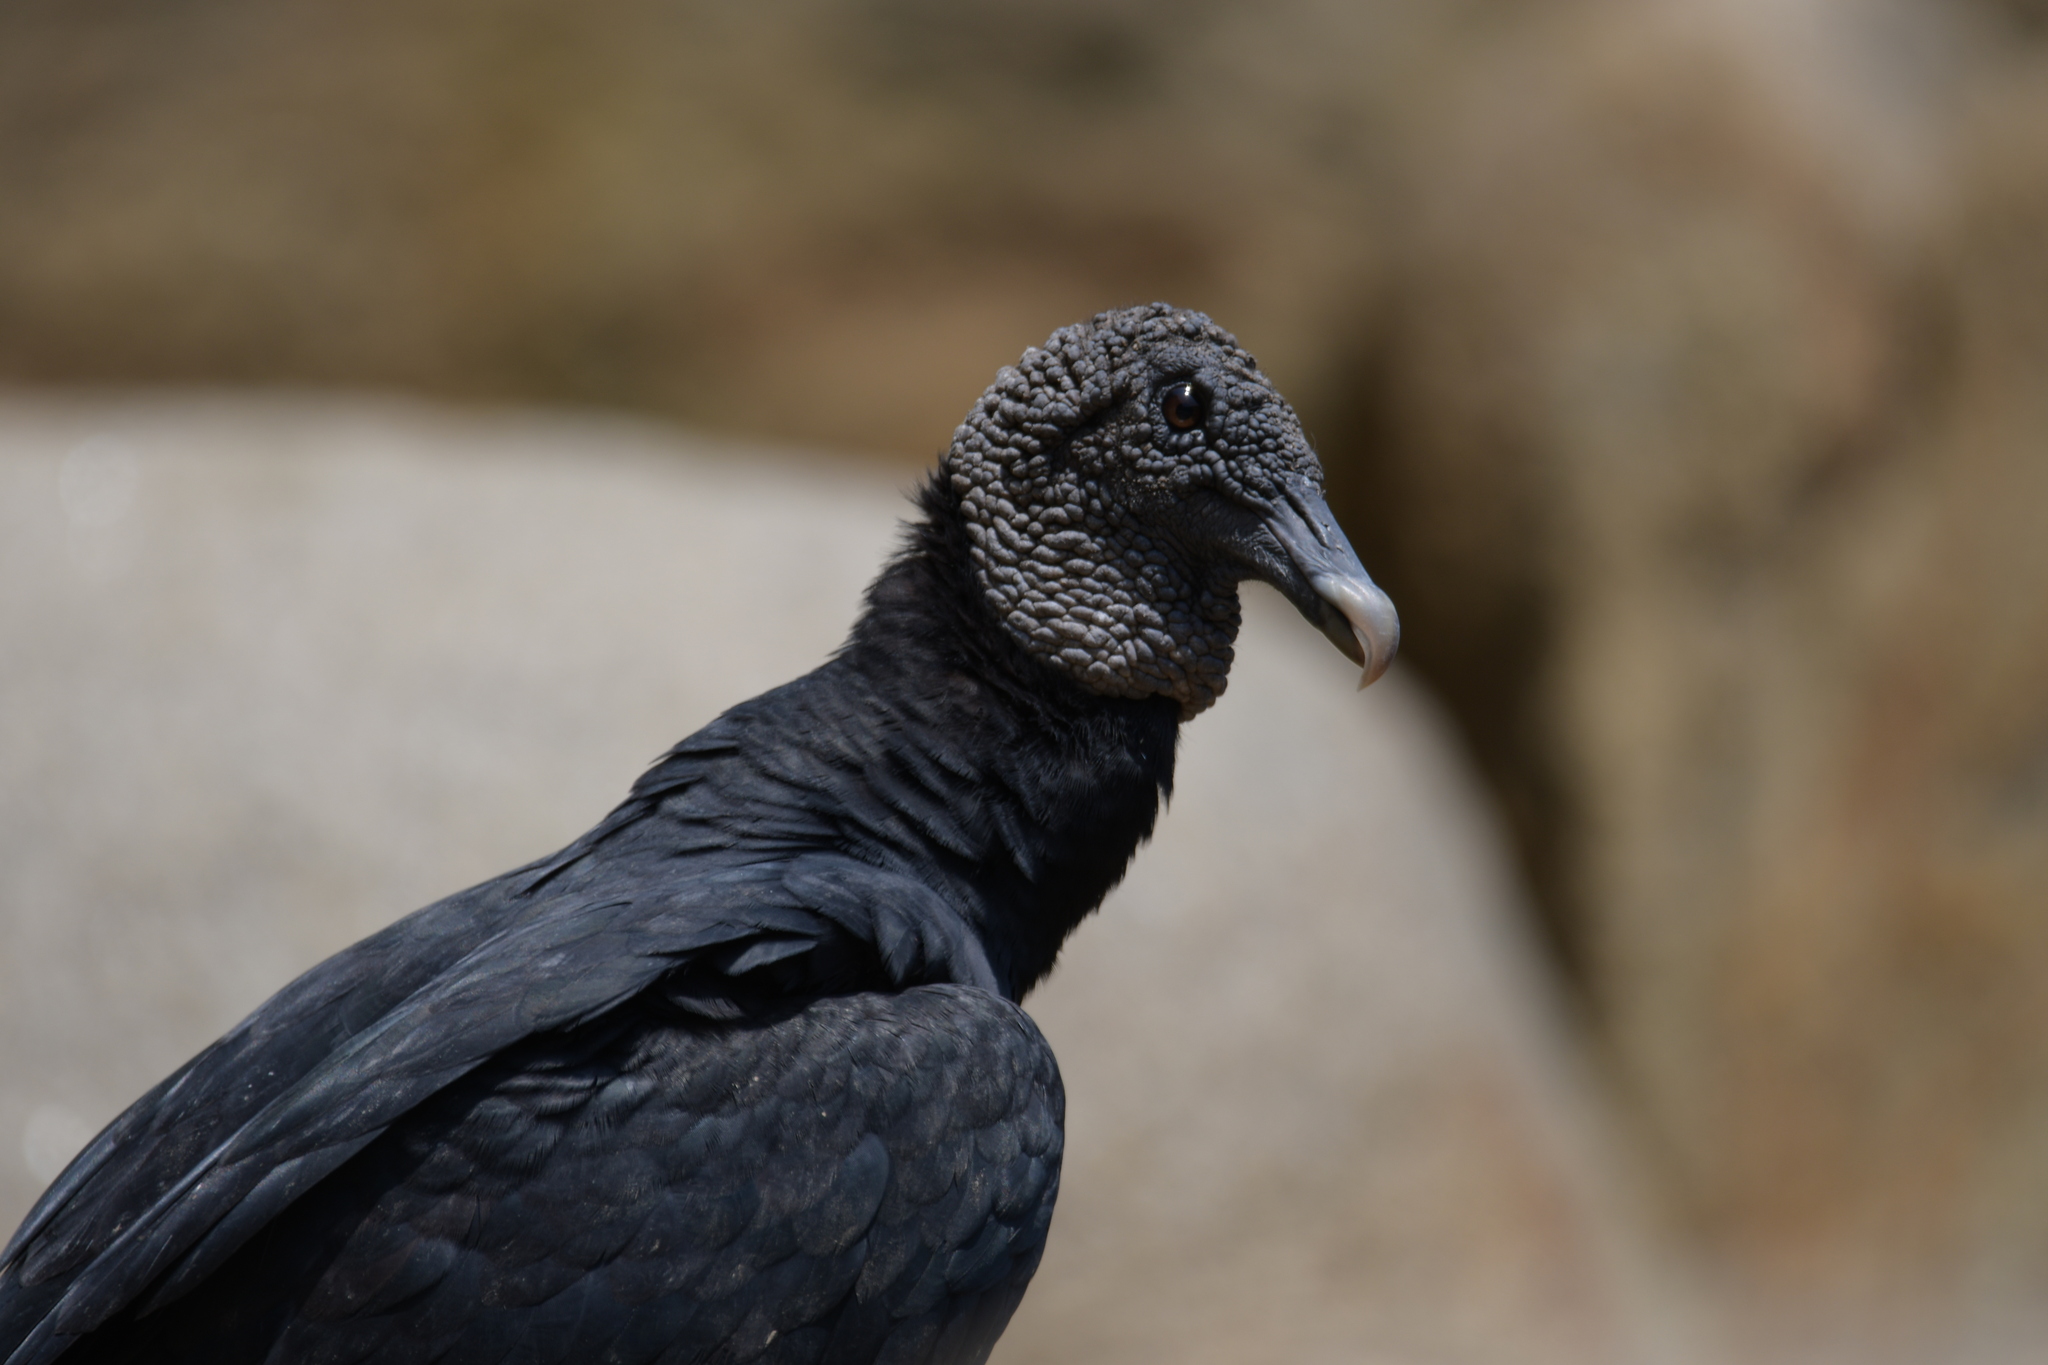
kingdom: Animalia
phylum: Chordata
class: Aves
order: Accipitriformes
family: Cathartidae
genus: Coragyps
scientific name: Coragyps atratus
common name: Black vulture
